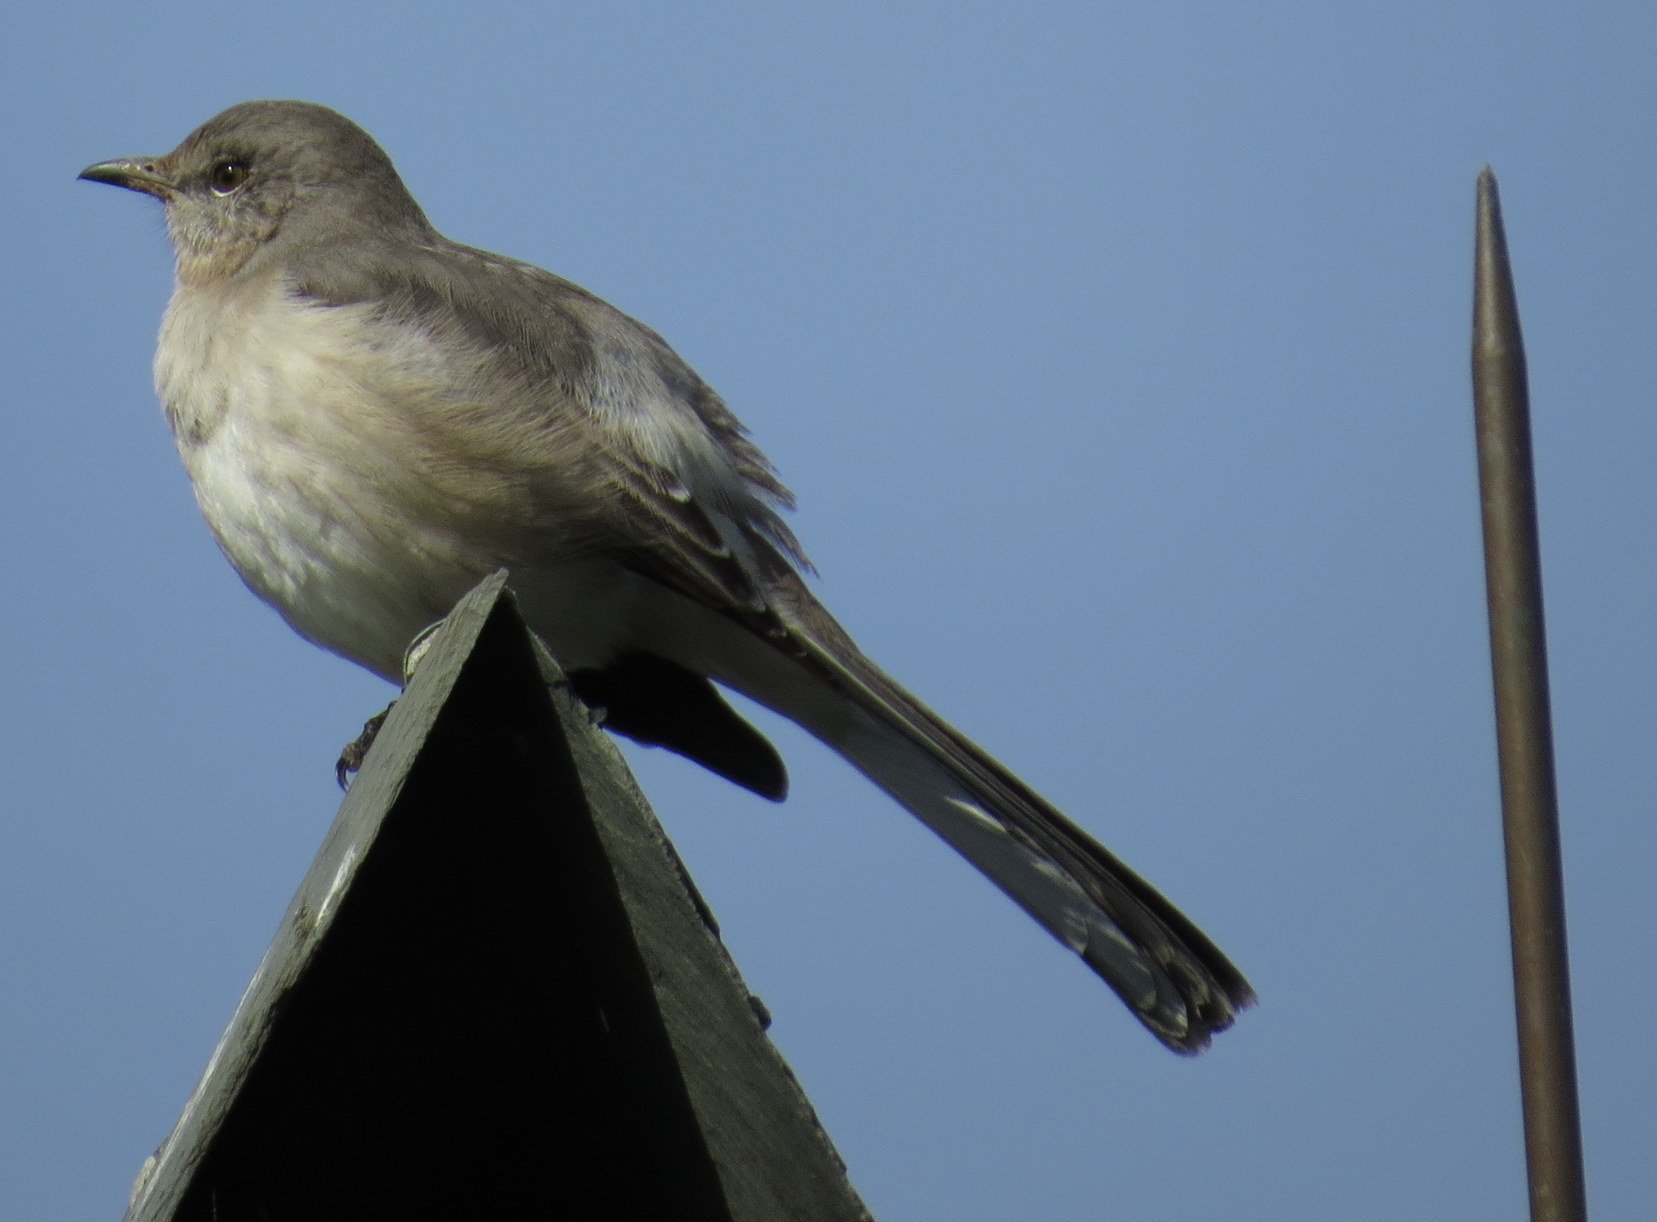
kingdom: Animalia
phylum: Chordata
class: Aves
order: Passeriformes
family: Mimidae
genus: Mimus
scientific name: Mimus polyglottos
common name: Northern mockingbird
